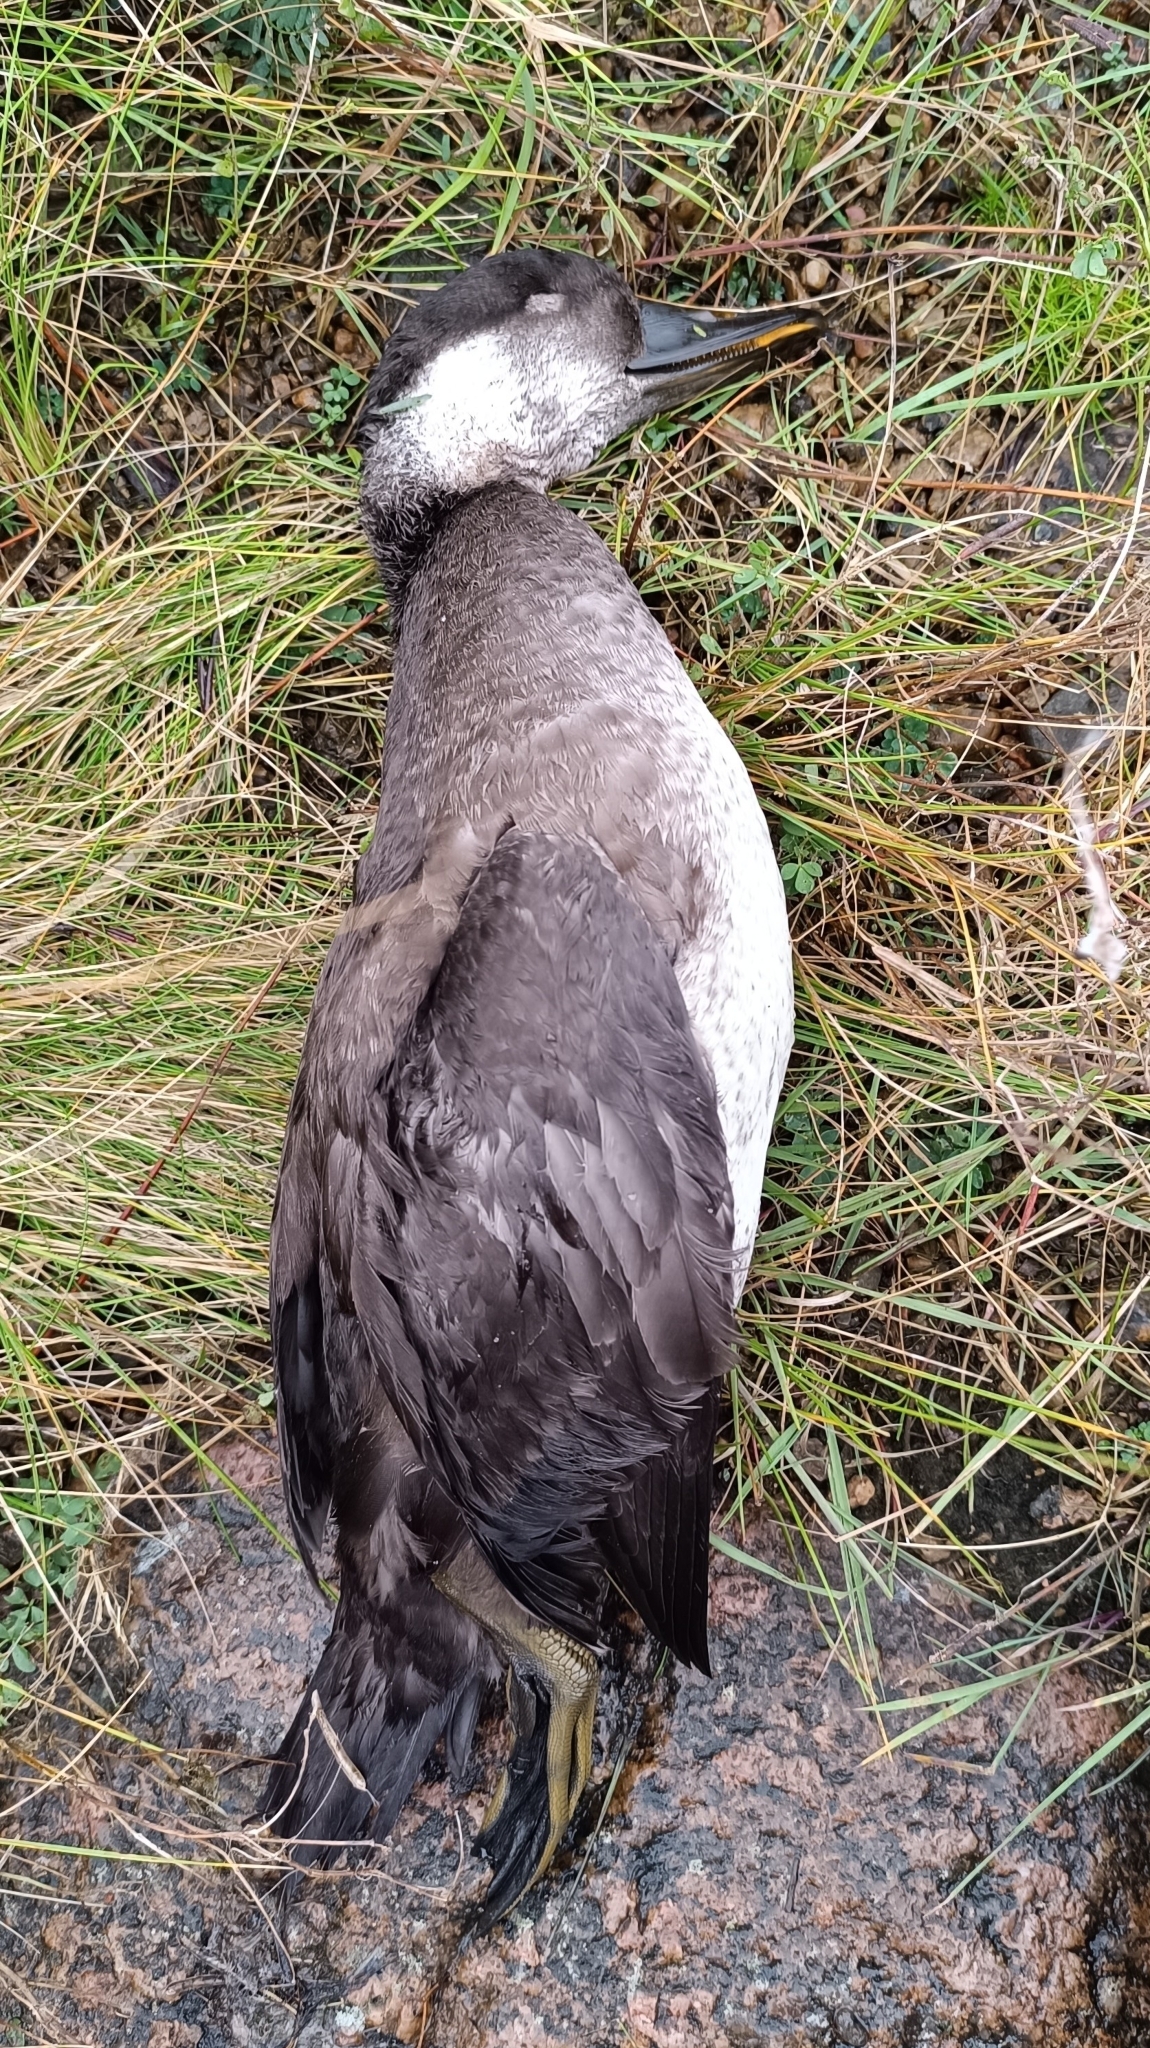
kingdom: Animalia
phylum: Chordata
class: Aves
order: Anseriformes
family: Anatidae
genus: Melanitta
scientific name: Melanitta nigra
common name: Common scoter
